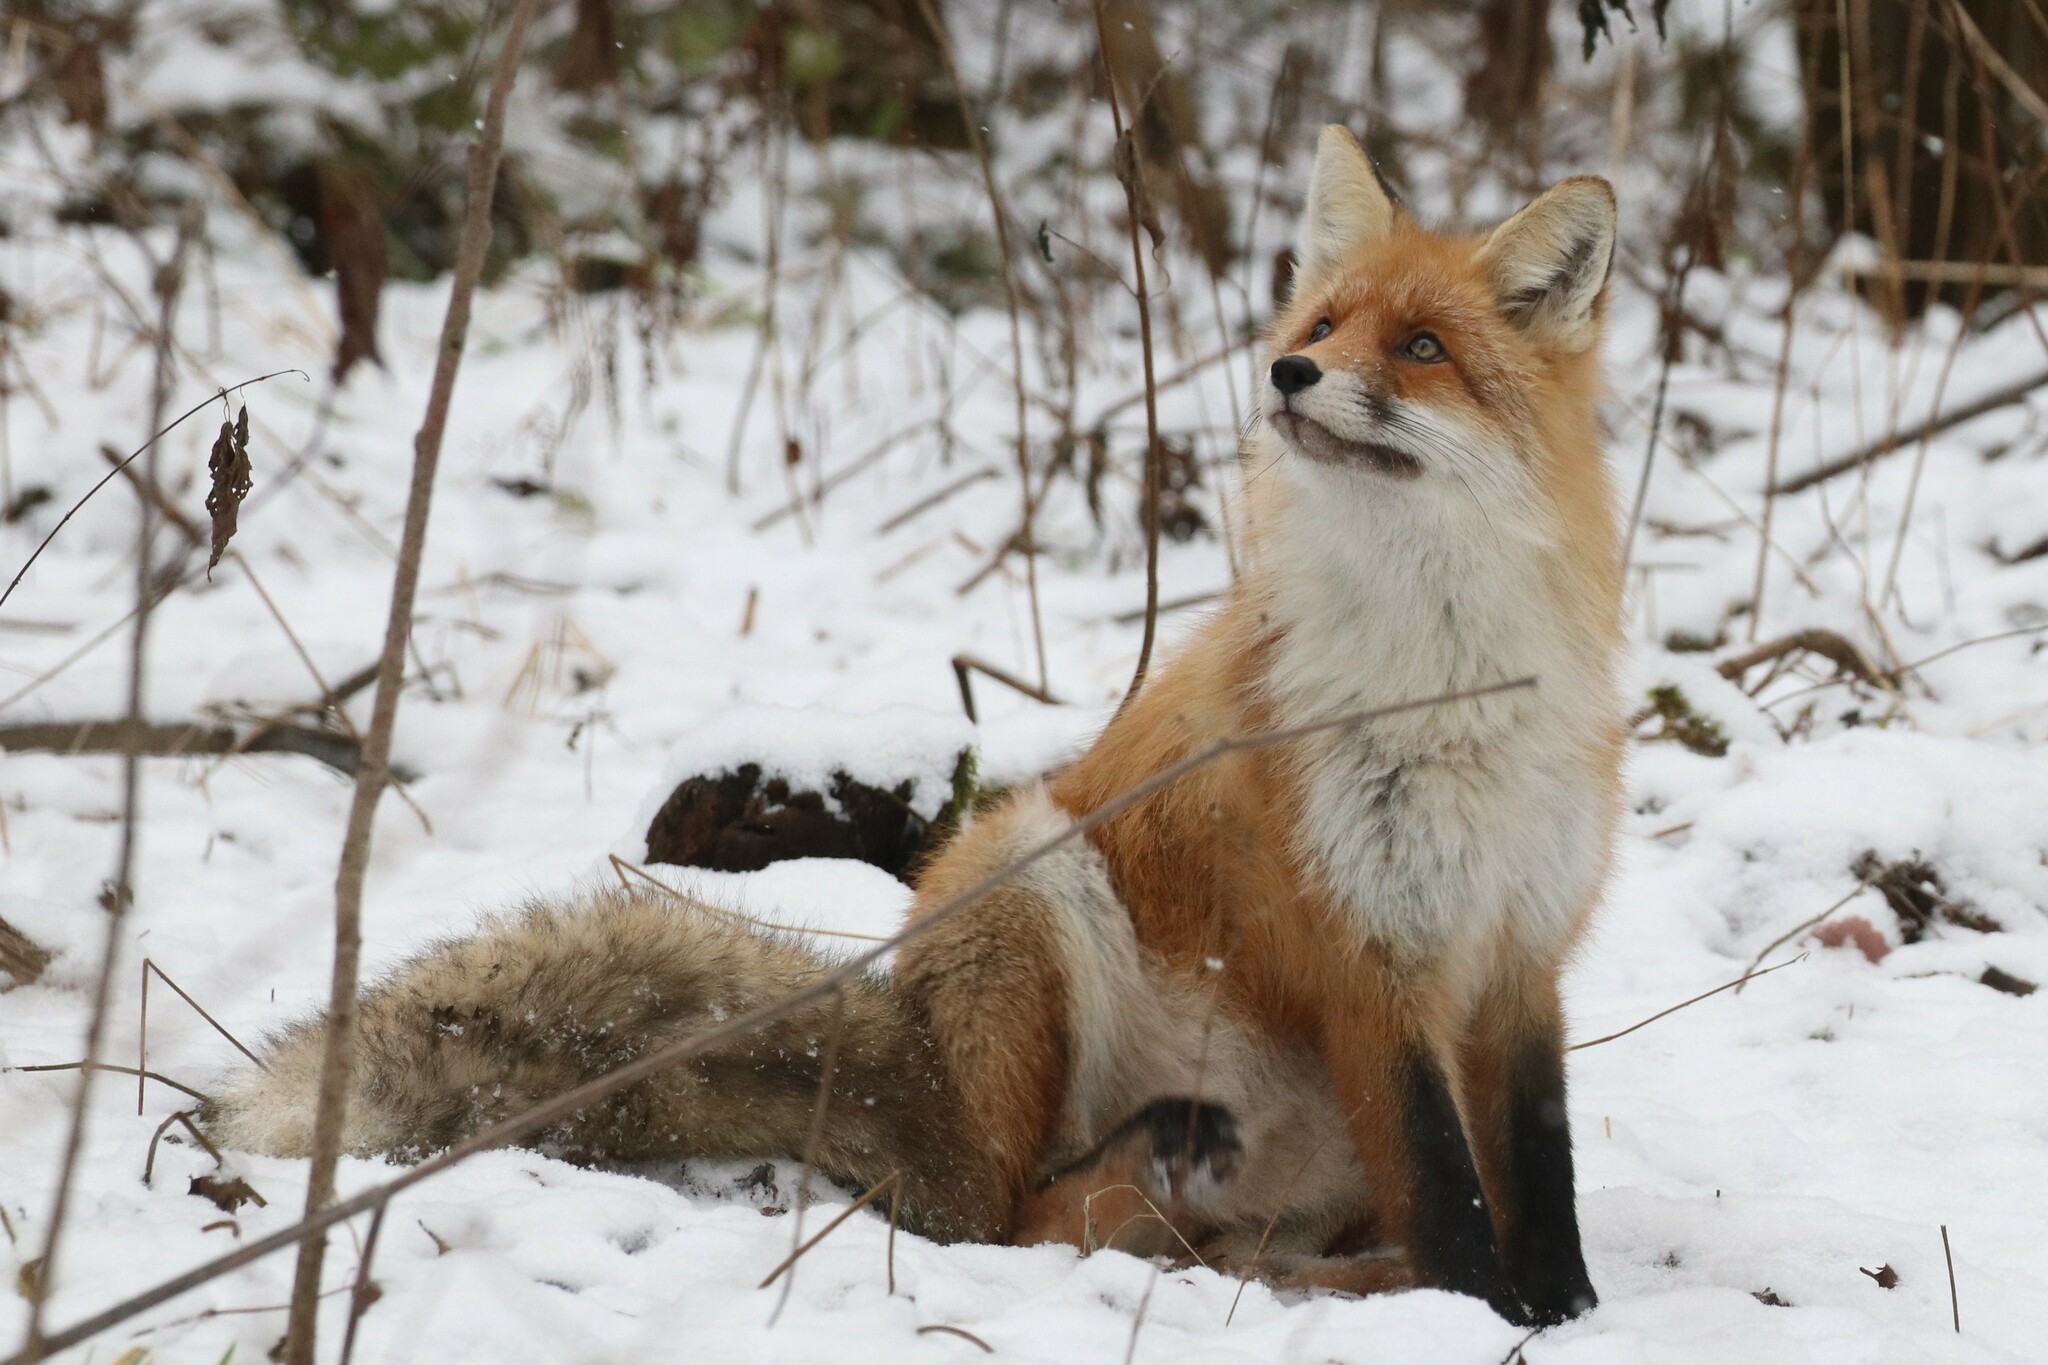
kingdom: Animalia
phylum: Chordata
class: Mammalia
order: Carnivora
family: Canidae
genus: Vulpes
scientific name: Vulpes vulpes
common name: Red fox
